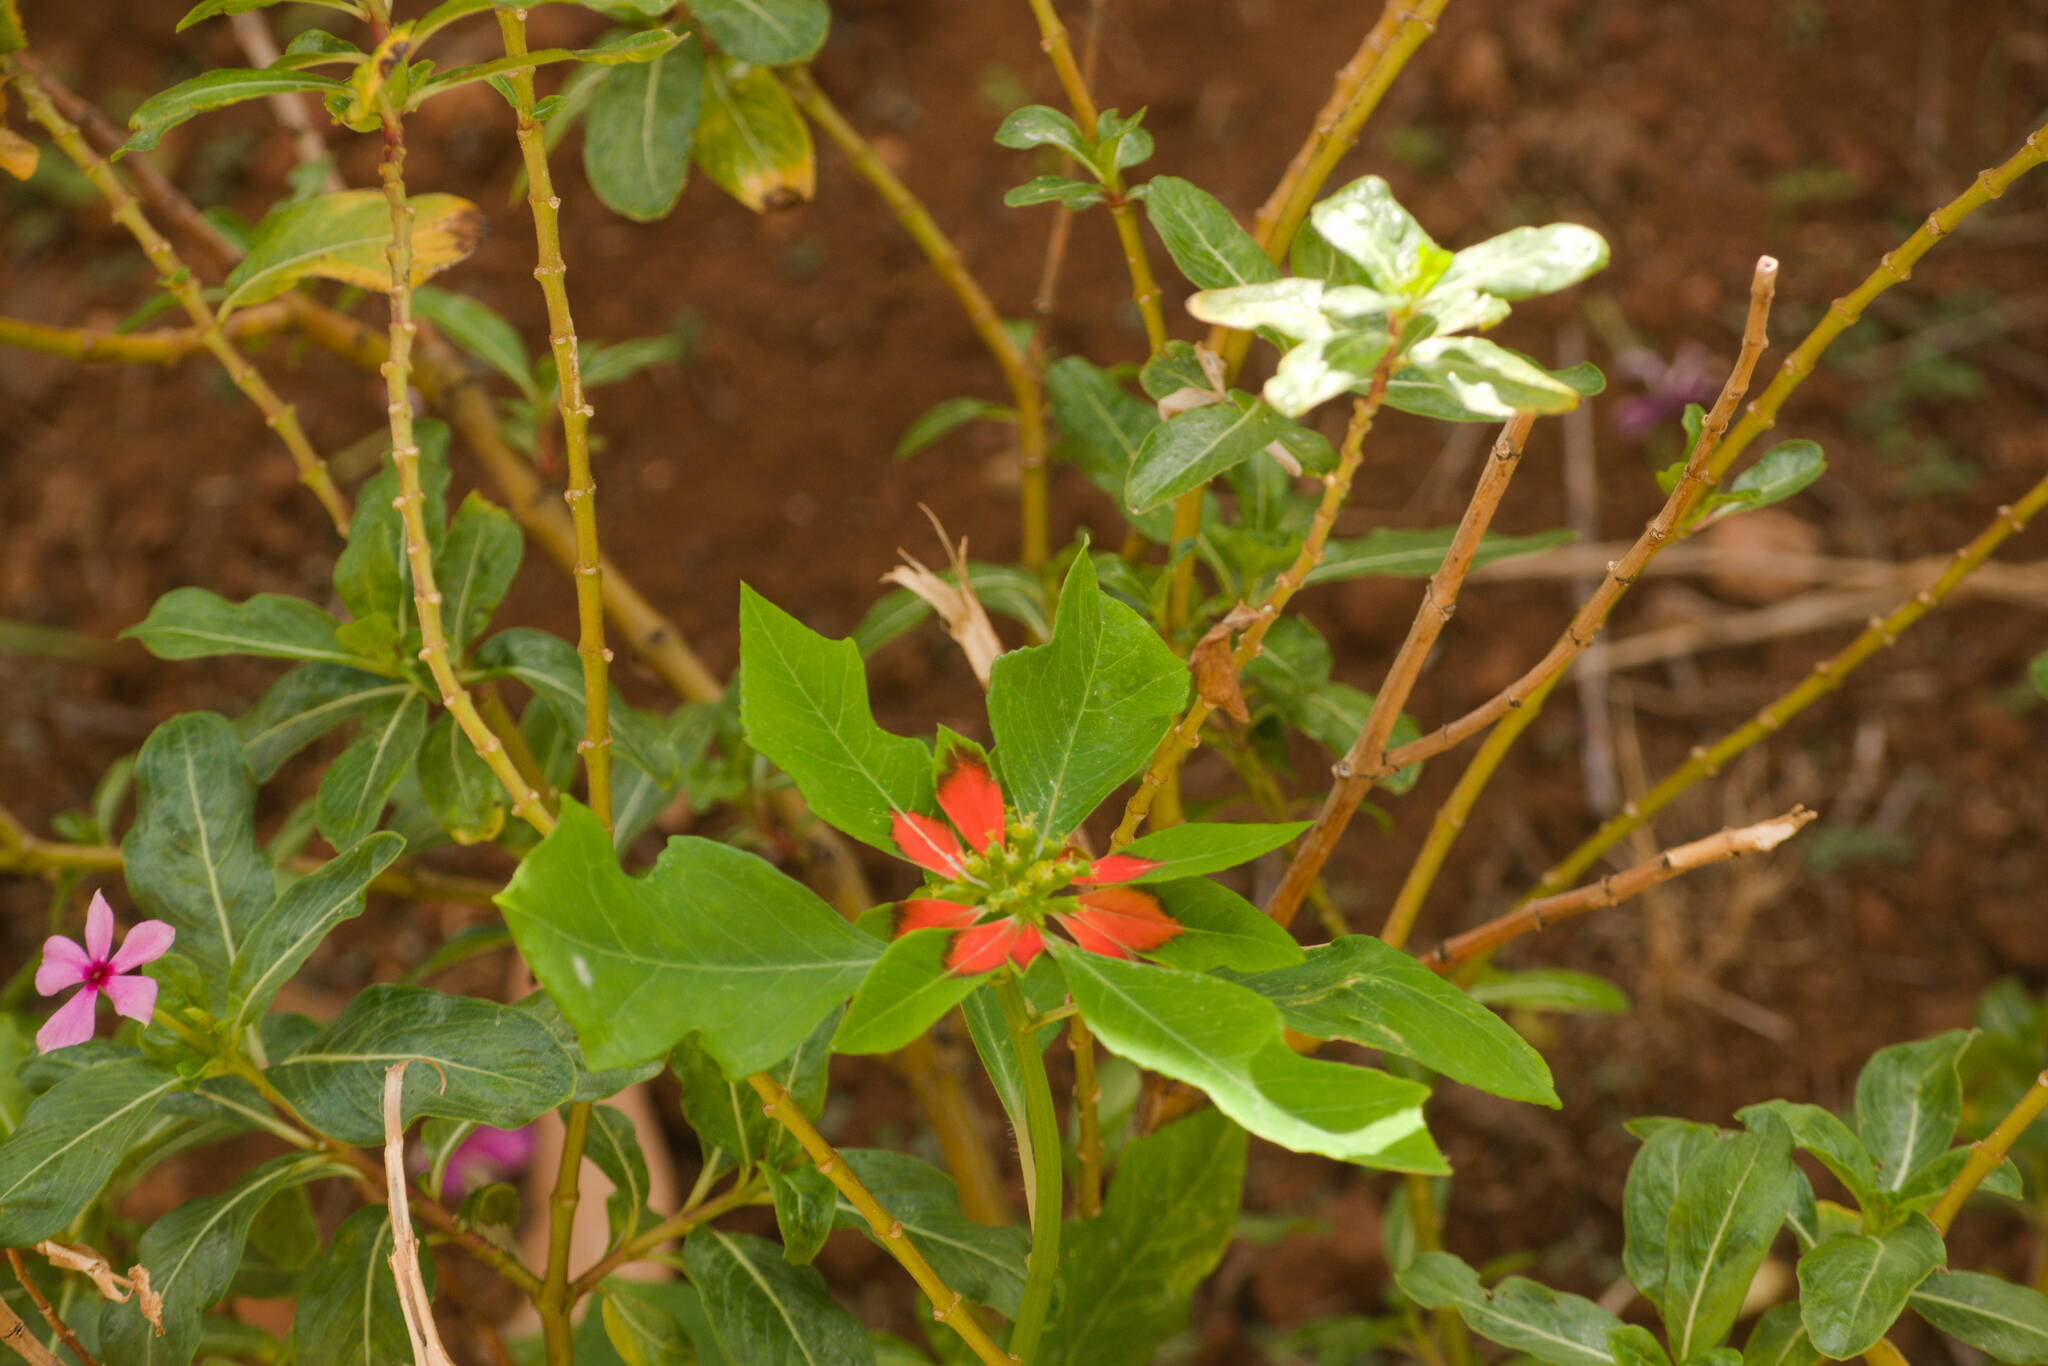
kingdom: Plantae
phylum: Tracheophyta
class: Magnoliopsida
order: Malpighiales
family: Euphorbiaceae
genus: Euphorbia
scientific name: Euphorbia heterophylla
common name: Mexican fireplant
